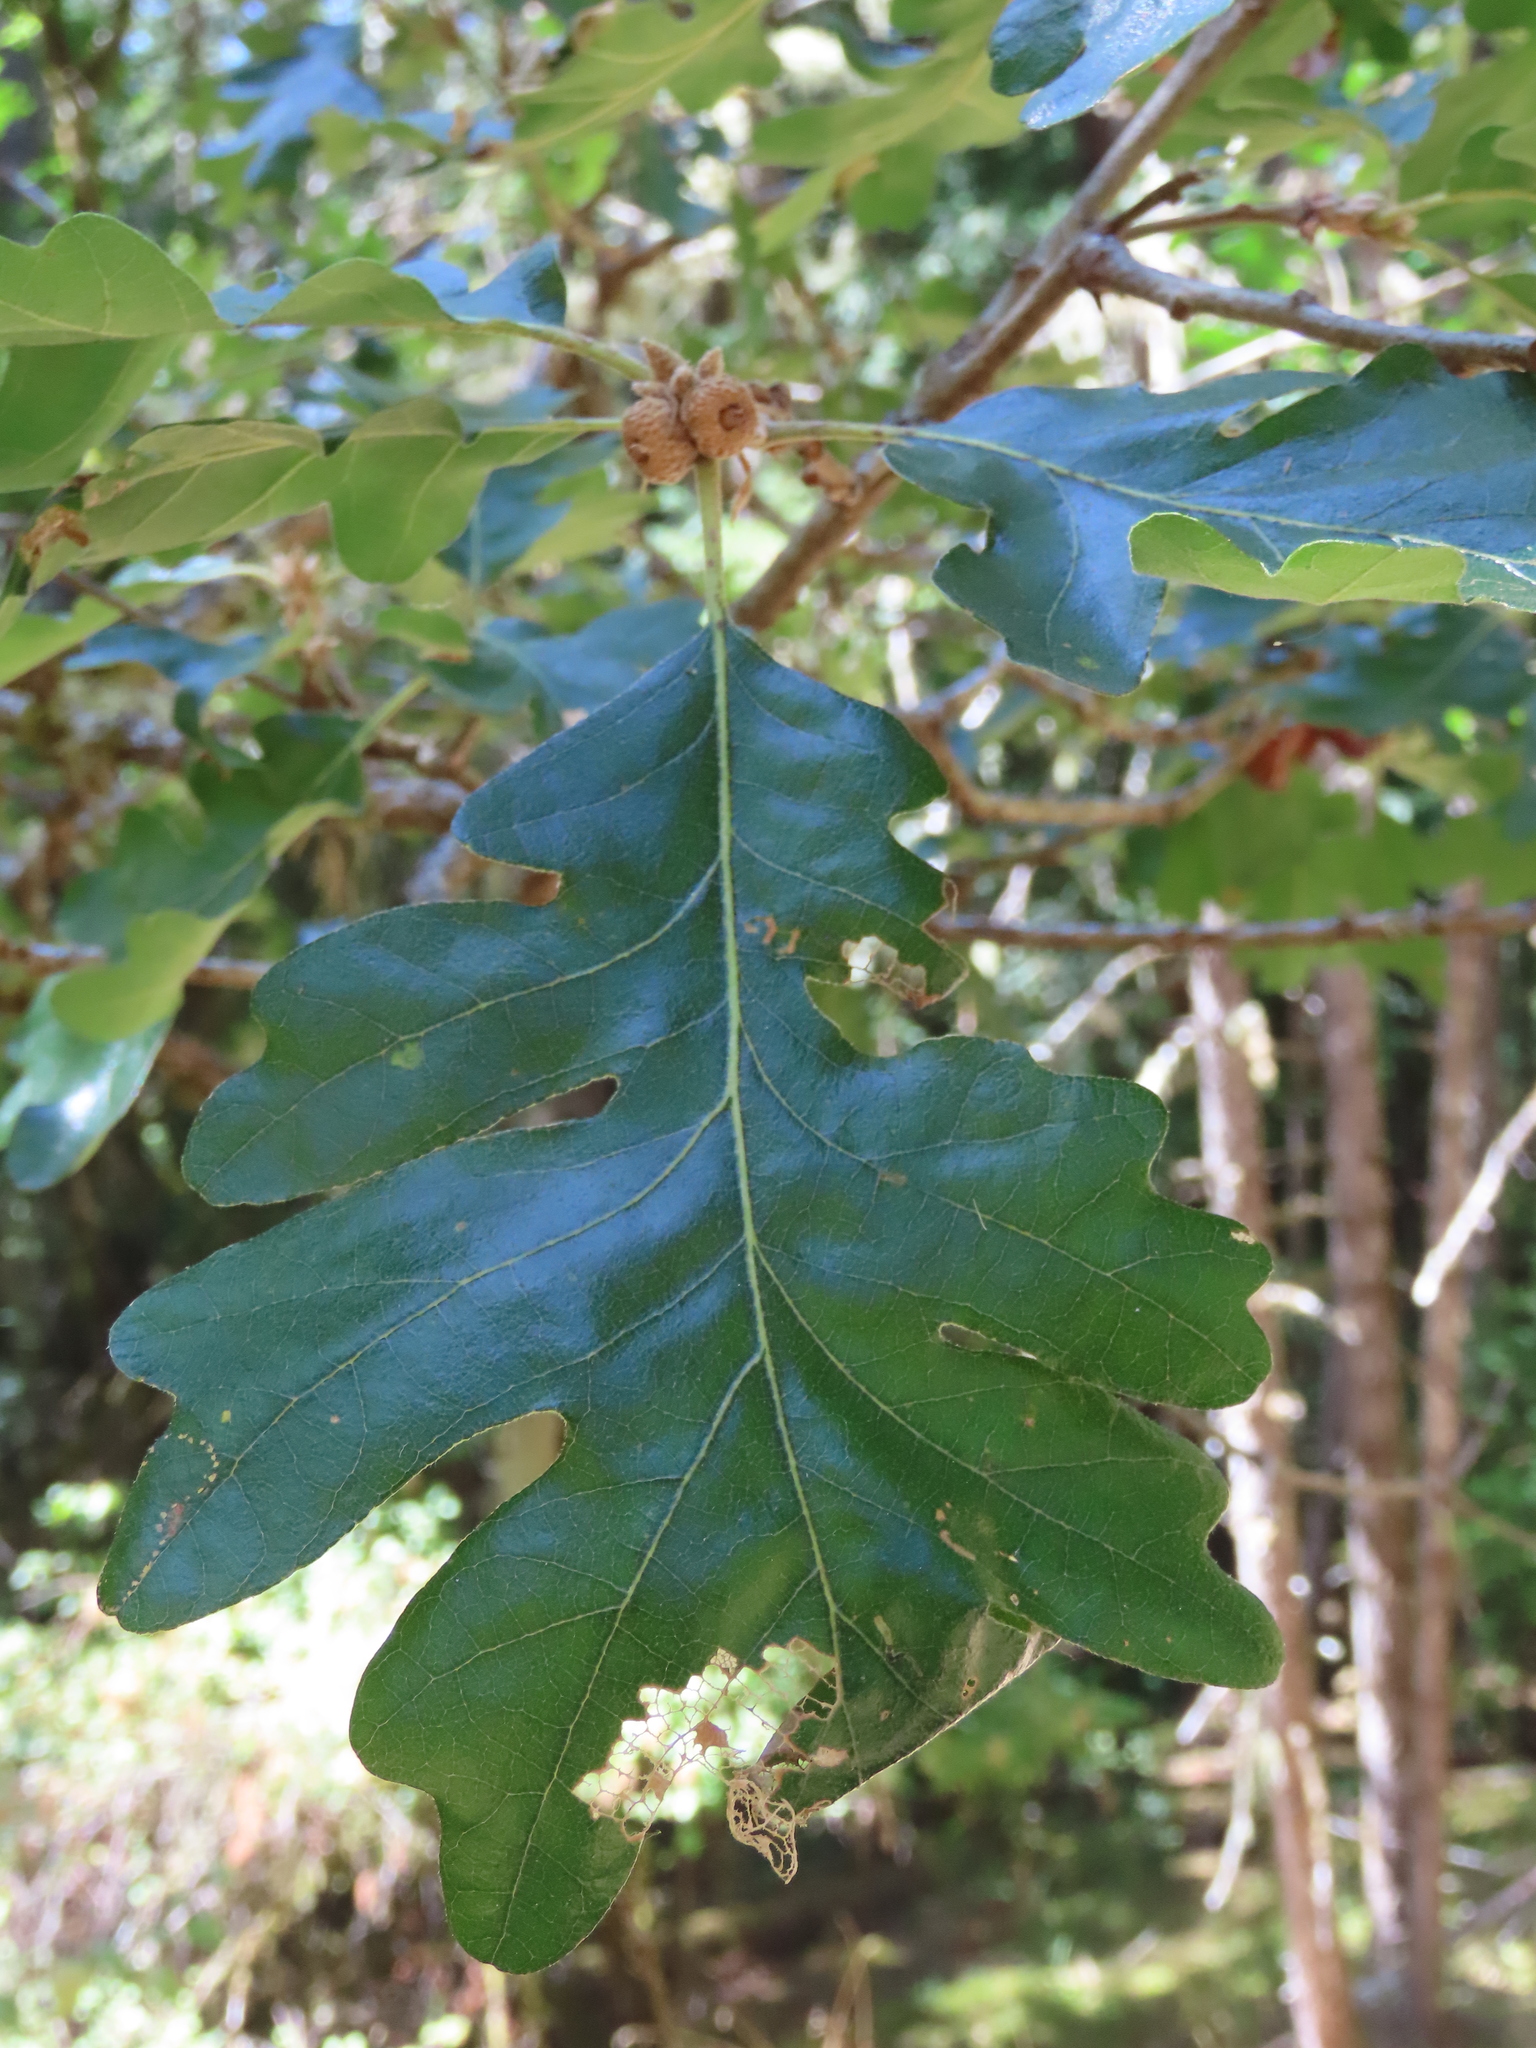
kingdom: Plantae
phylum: Tracheophyta
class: Magnoliopsida
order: Fagales
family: Fagaceae
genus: Quercus
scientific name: Quercus garryana
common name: Garry oak
